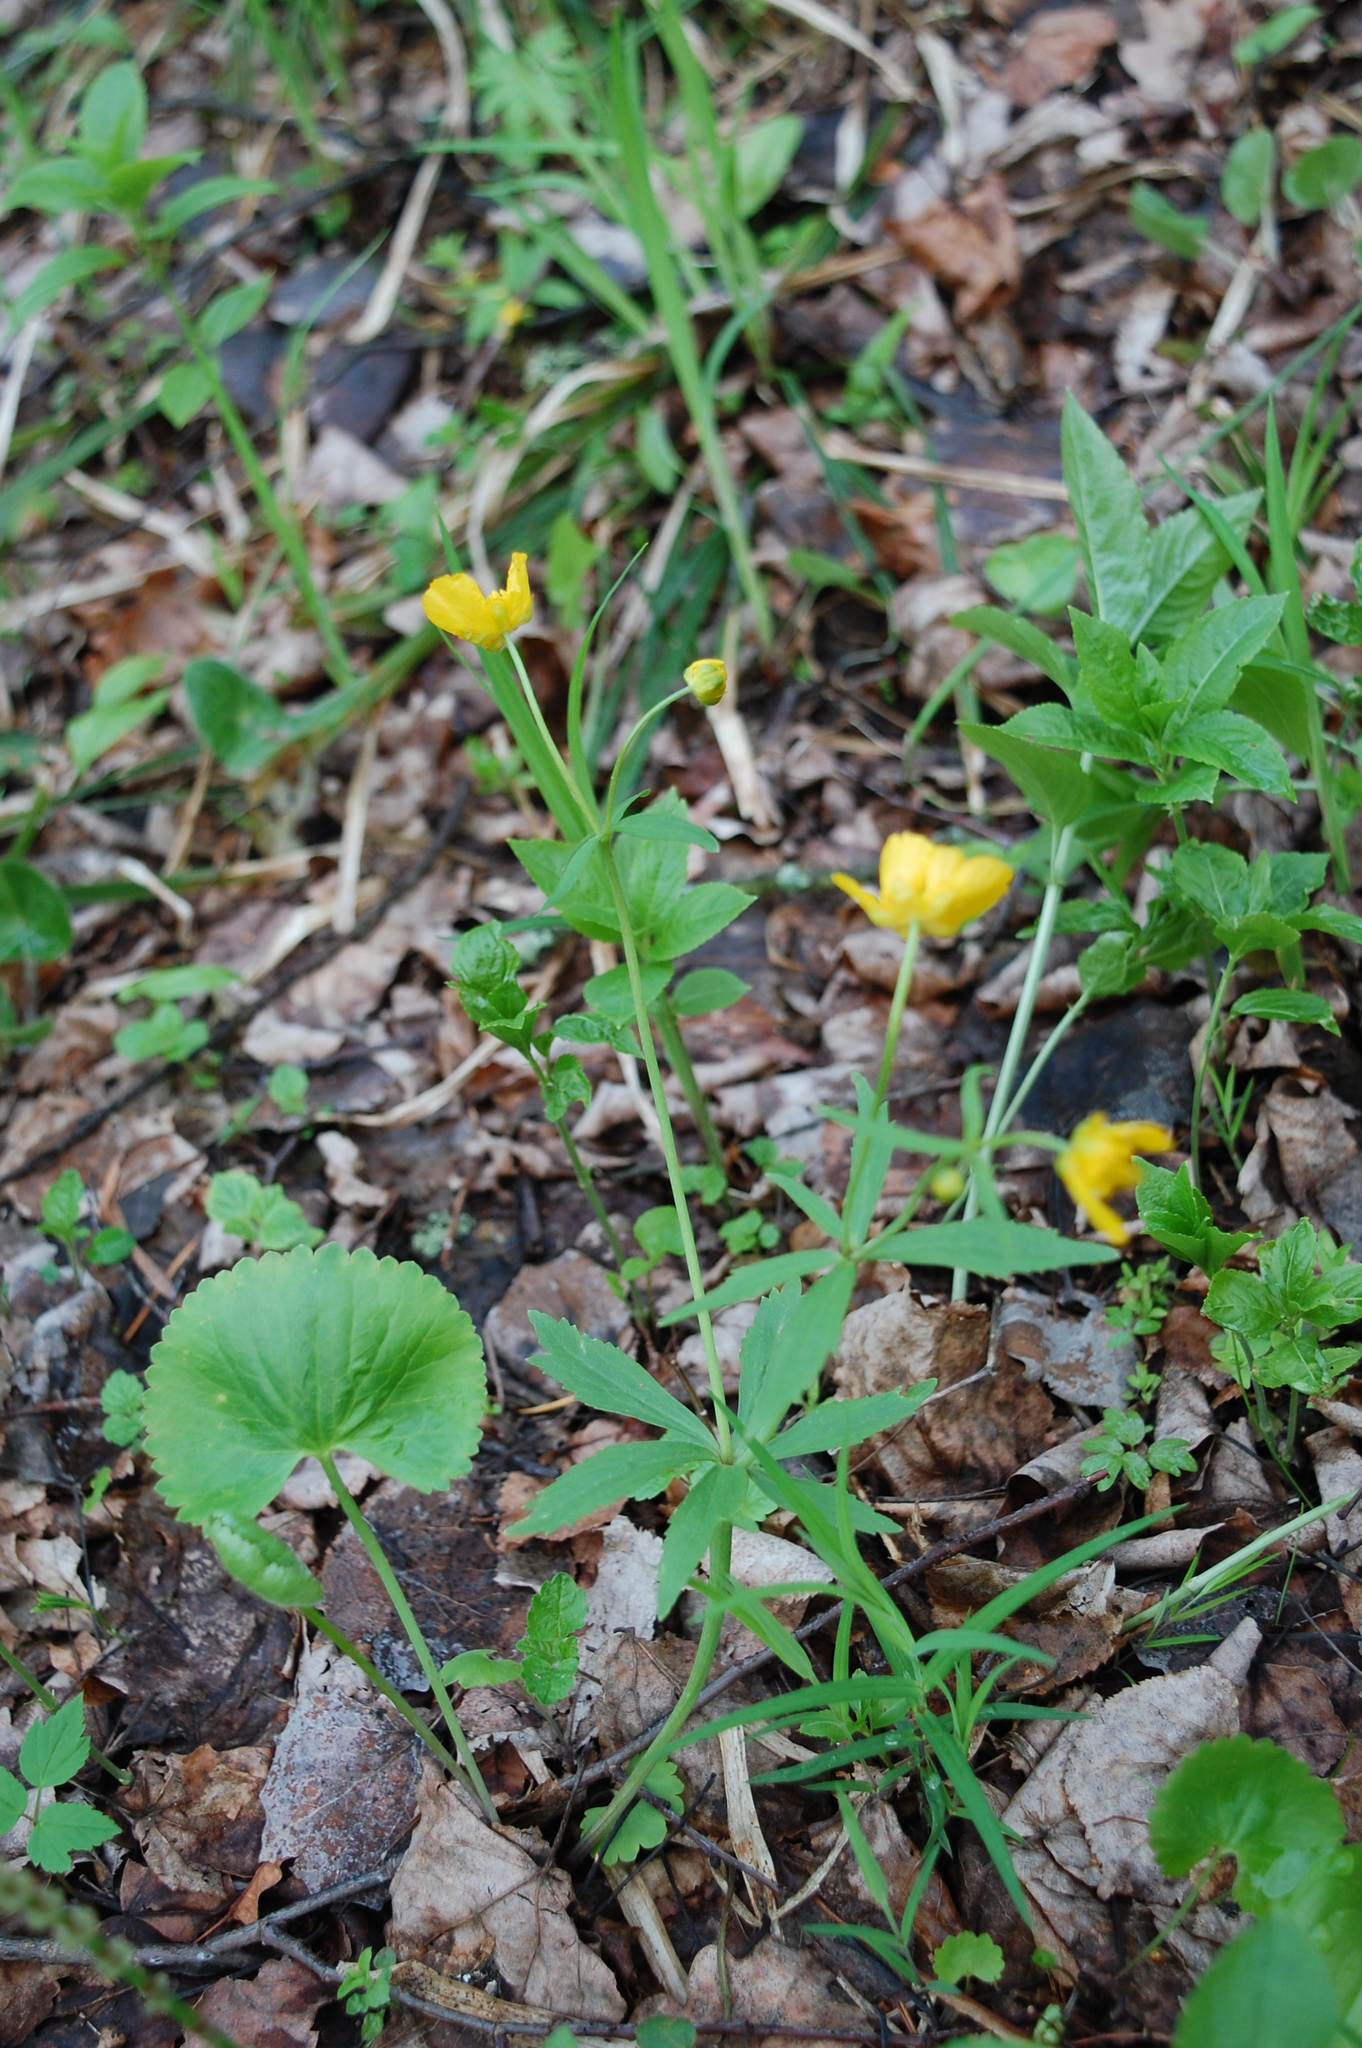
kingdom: Plantae
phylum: Tracheophyta
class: Magnoliopsida
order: Ranunculales
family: Ranunculaceae
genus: Ranunculus
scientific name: Ranunculus cassubicus
